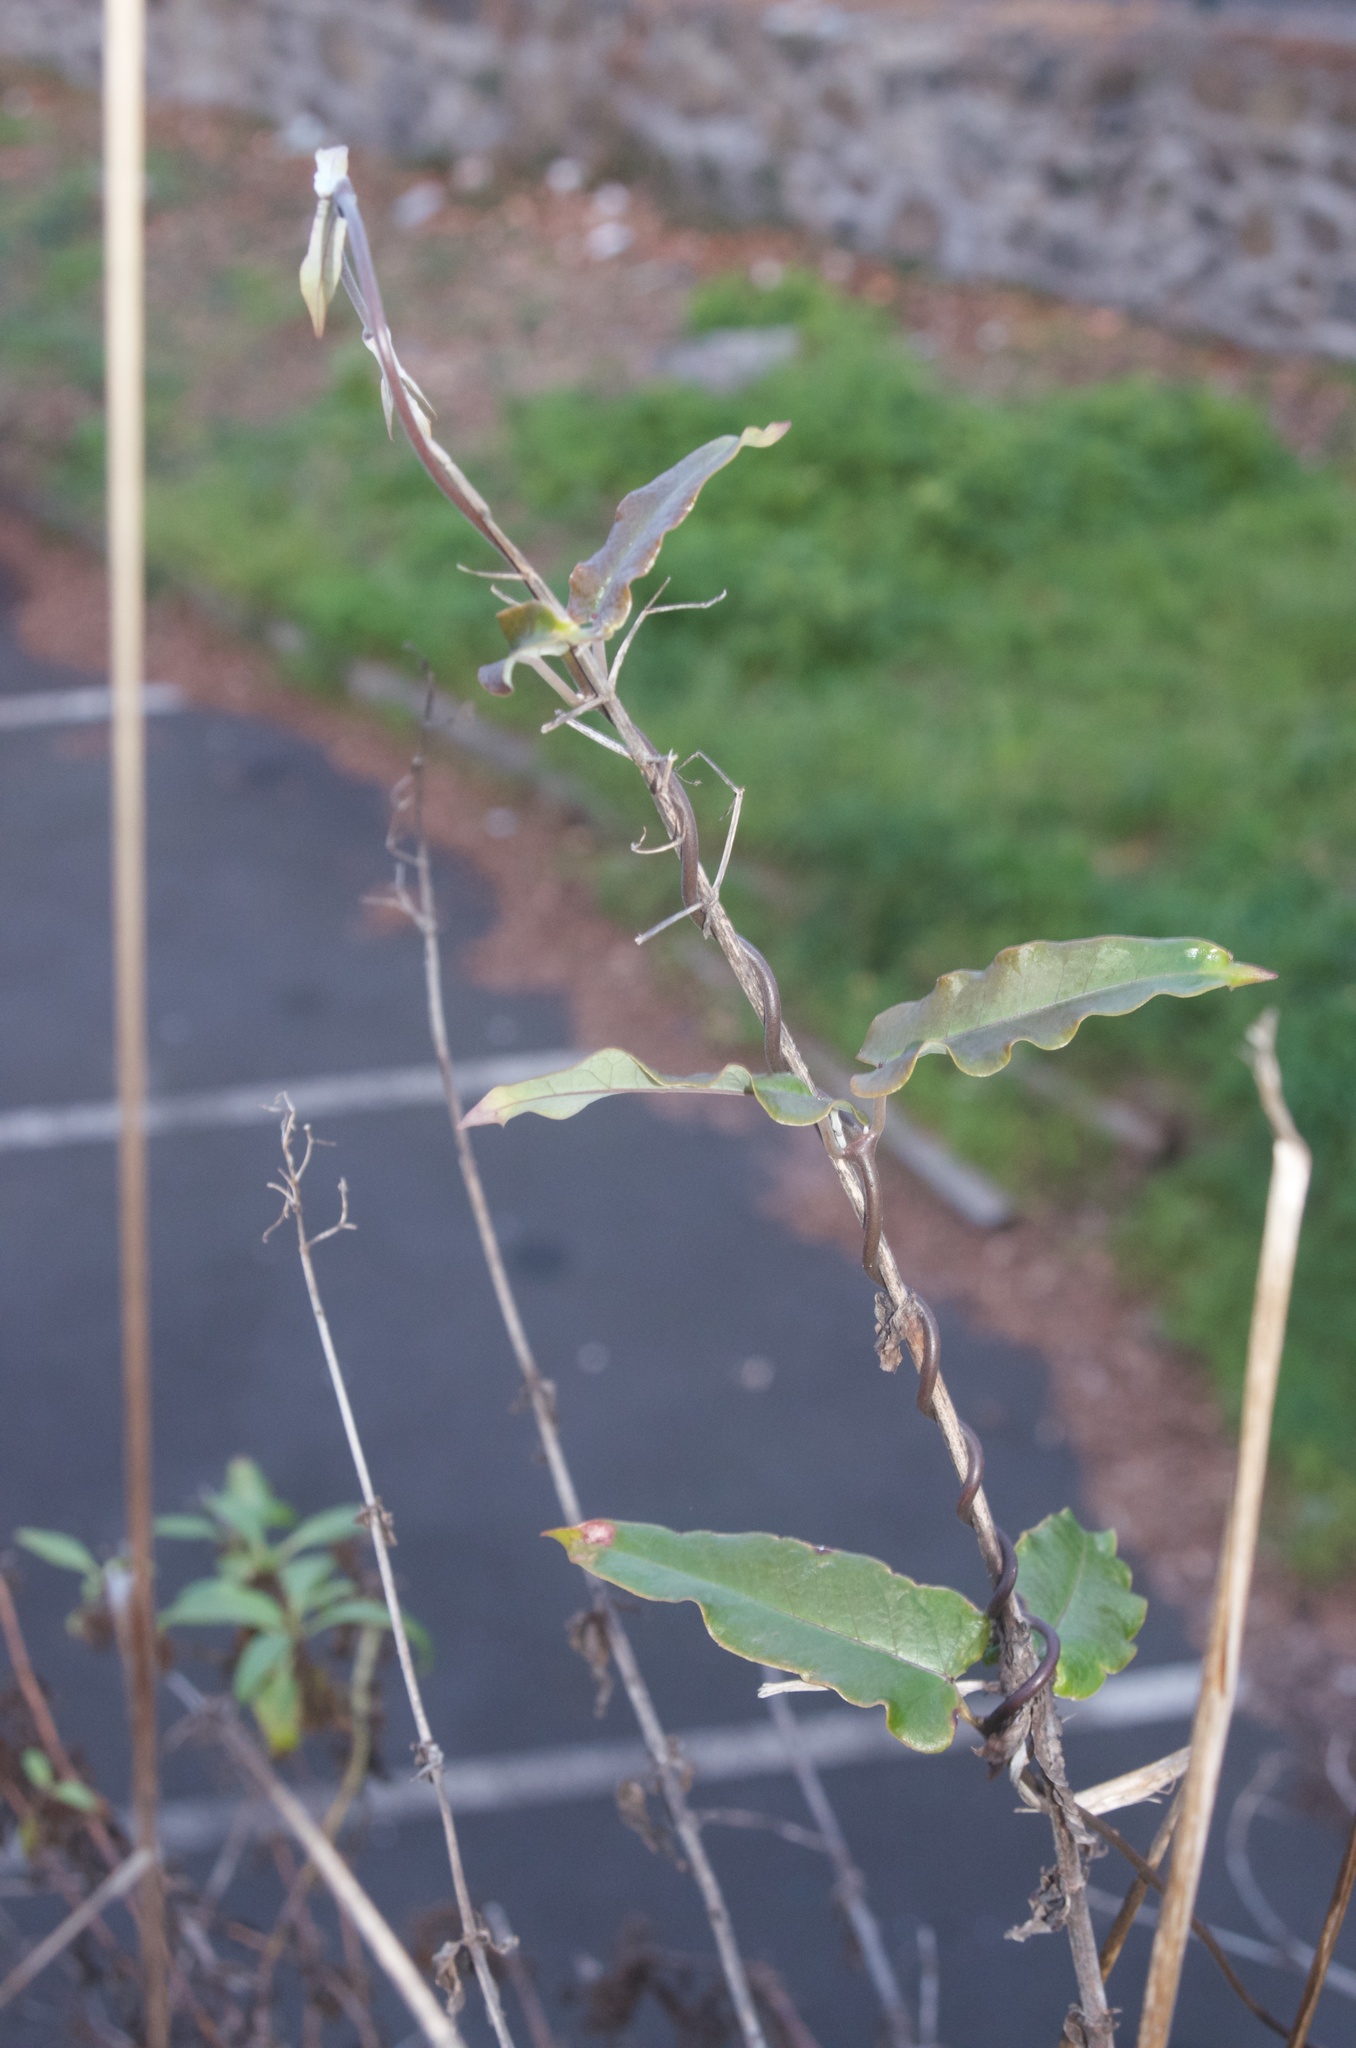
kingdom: Plantae
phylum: Tracheophyta
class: Magnoliopsida
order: Gentianales
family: Apocynaceae
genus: Araujia
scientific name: Araujia sericifera
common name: White bladderflower
